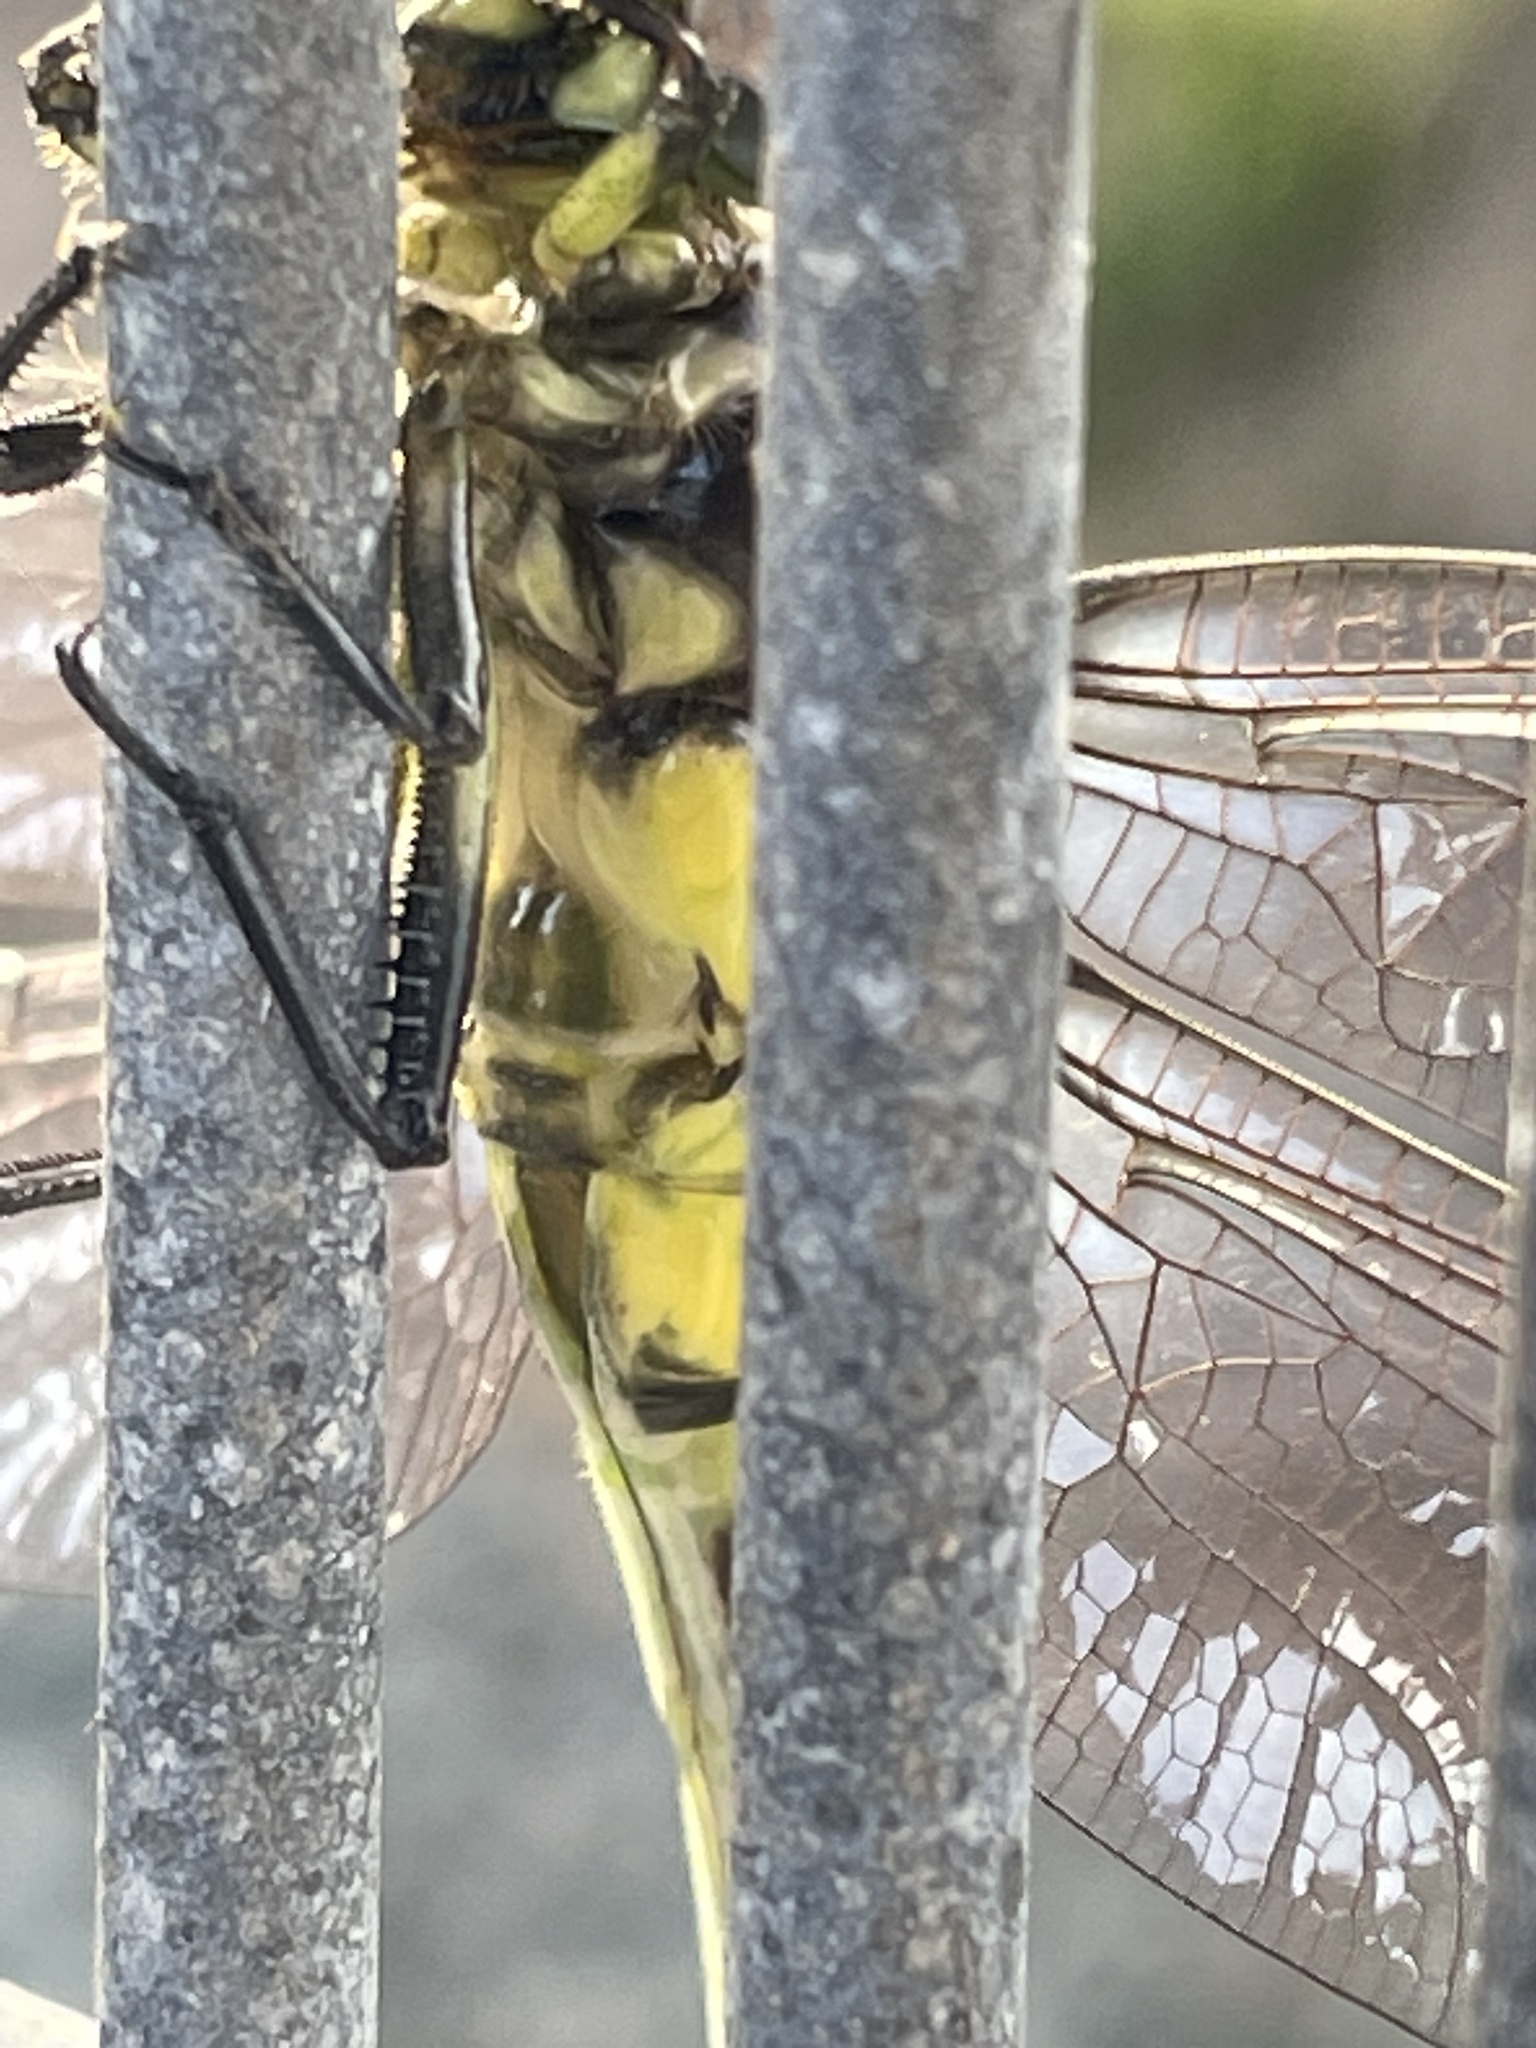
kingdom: Animalia
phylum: Arthropoda
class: Insecta
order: Odonata
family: Gomphidae
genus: Ictinogomphus
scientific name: Ictinogomphus australis
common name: Australian tiger
